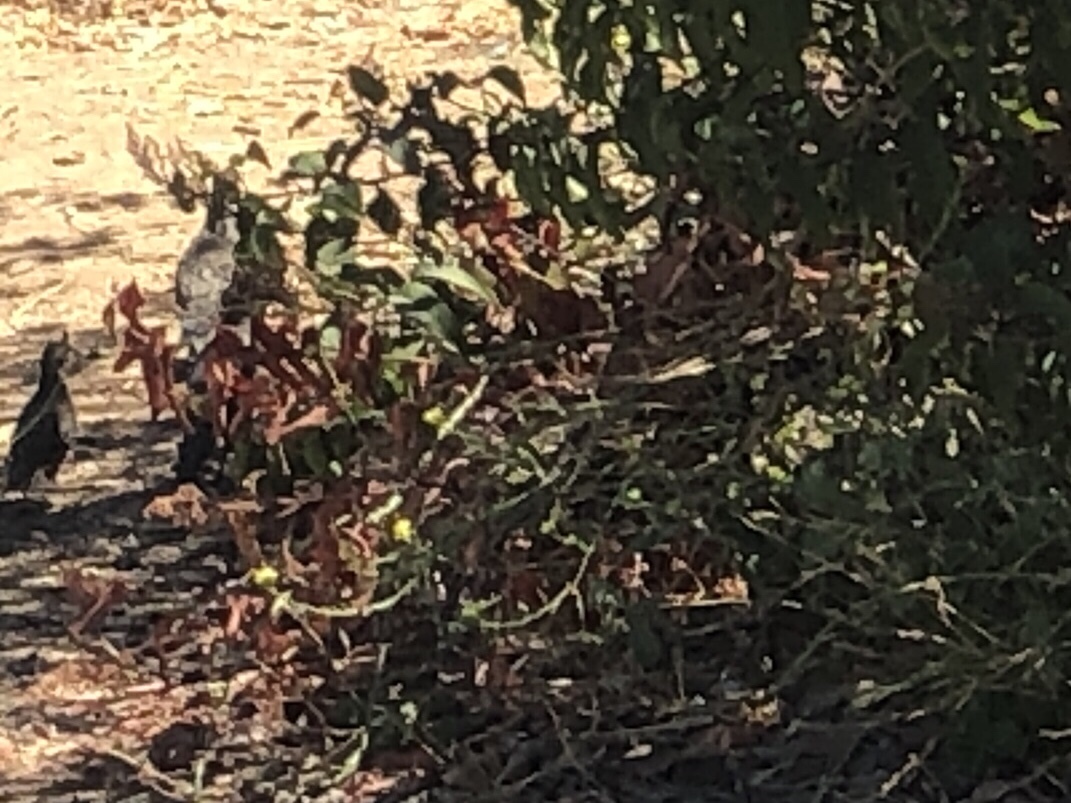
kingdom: Animalia
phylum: Chordata
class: Aves
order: Galliformes
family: Odontophoridae
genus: Callipepla
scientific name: Callipepla californica
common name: California quail
